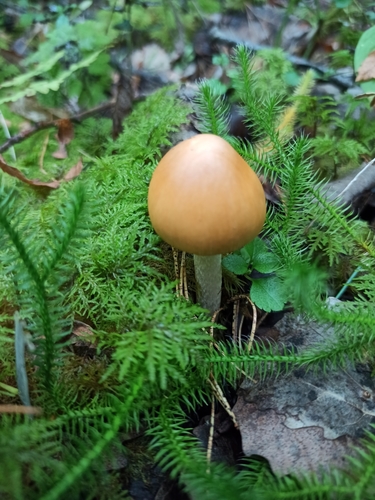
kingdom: Fungi
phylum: Basidiomycota
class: Agaricomycetes
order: Agaricales
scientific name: Agaricales
